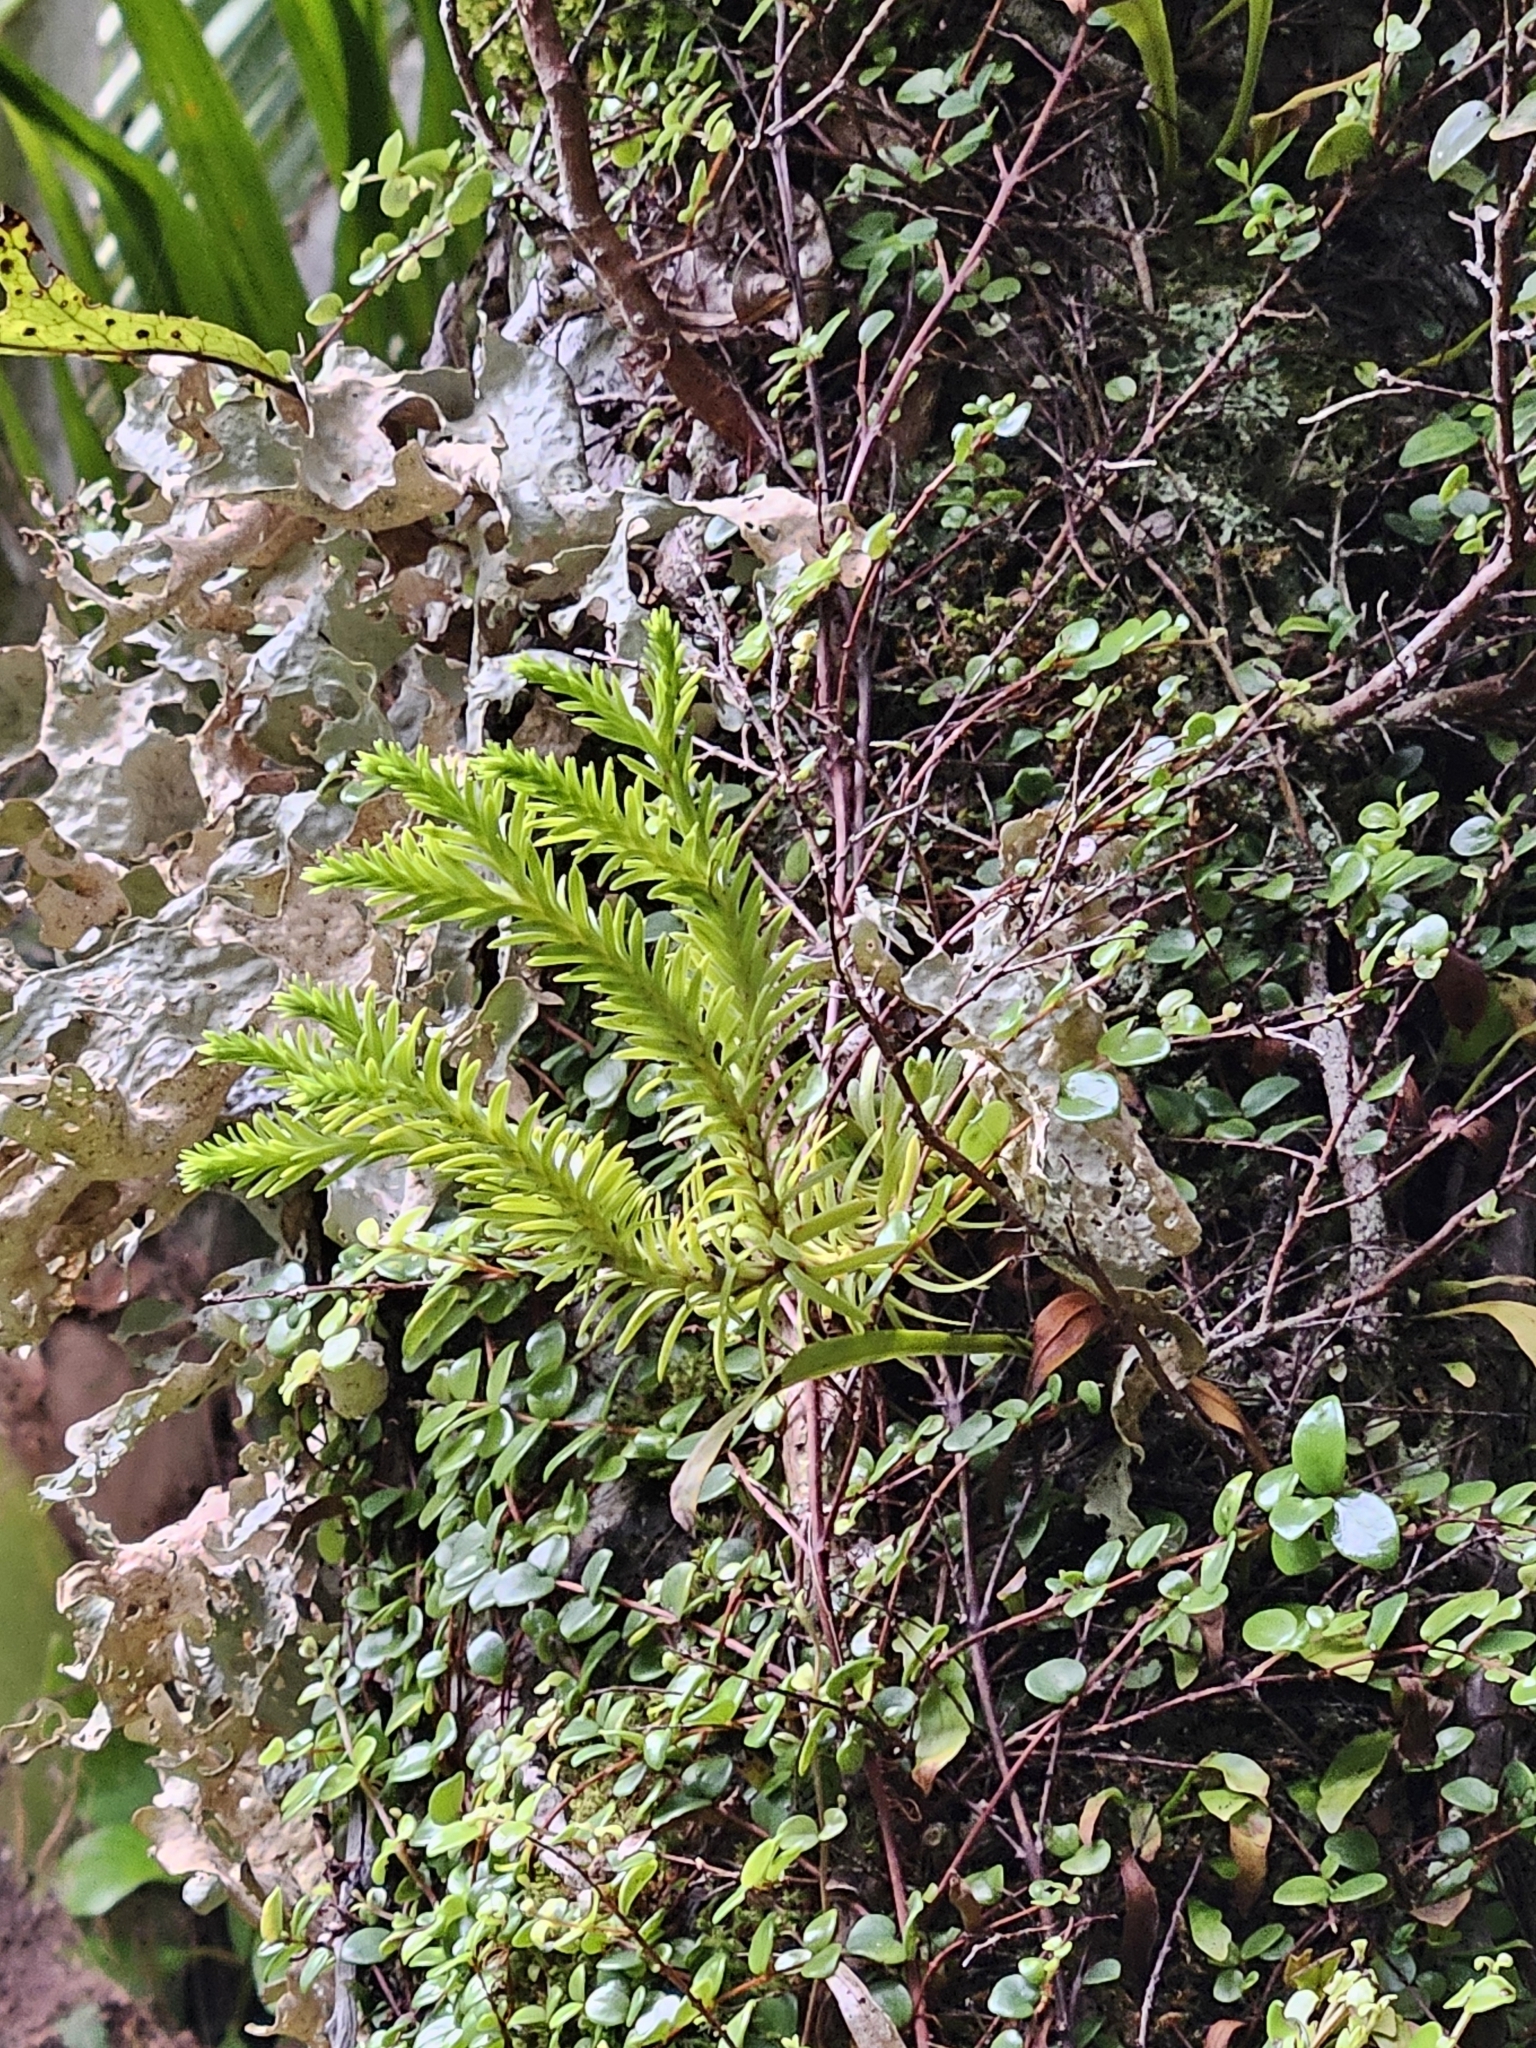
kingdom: Plantae
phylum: Tracheophyta
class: Lycopodiopsida
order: Lycopodiales
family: Lycopodiaceae
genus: Phlegmariurus
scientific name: Phlegmariurus varius
